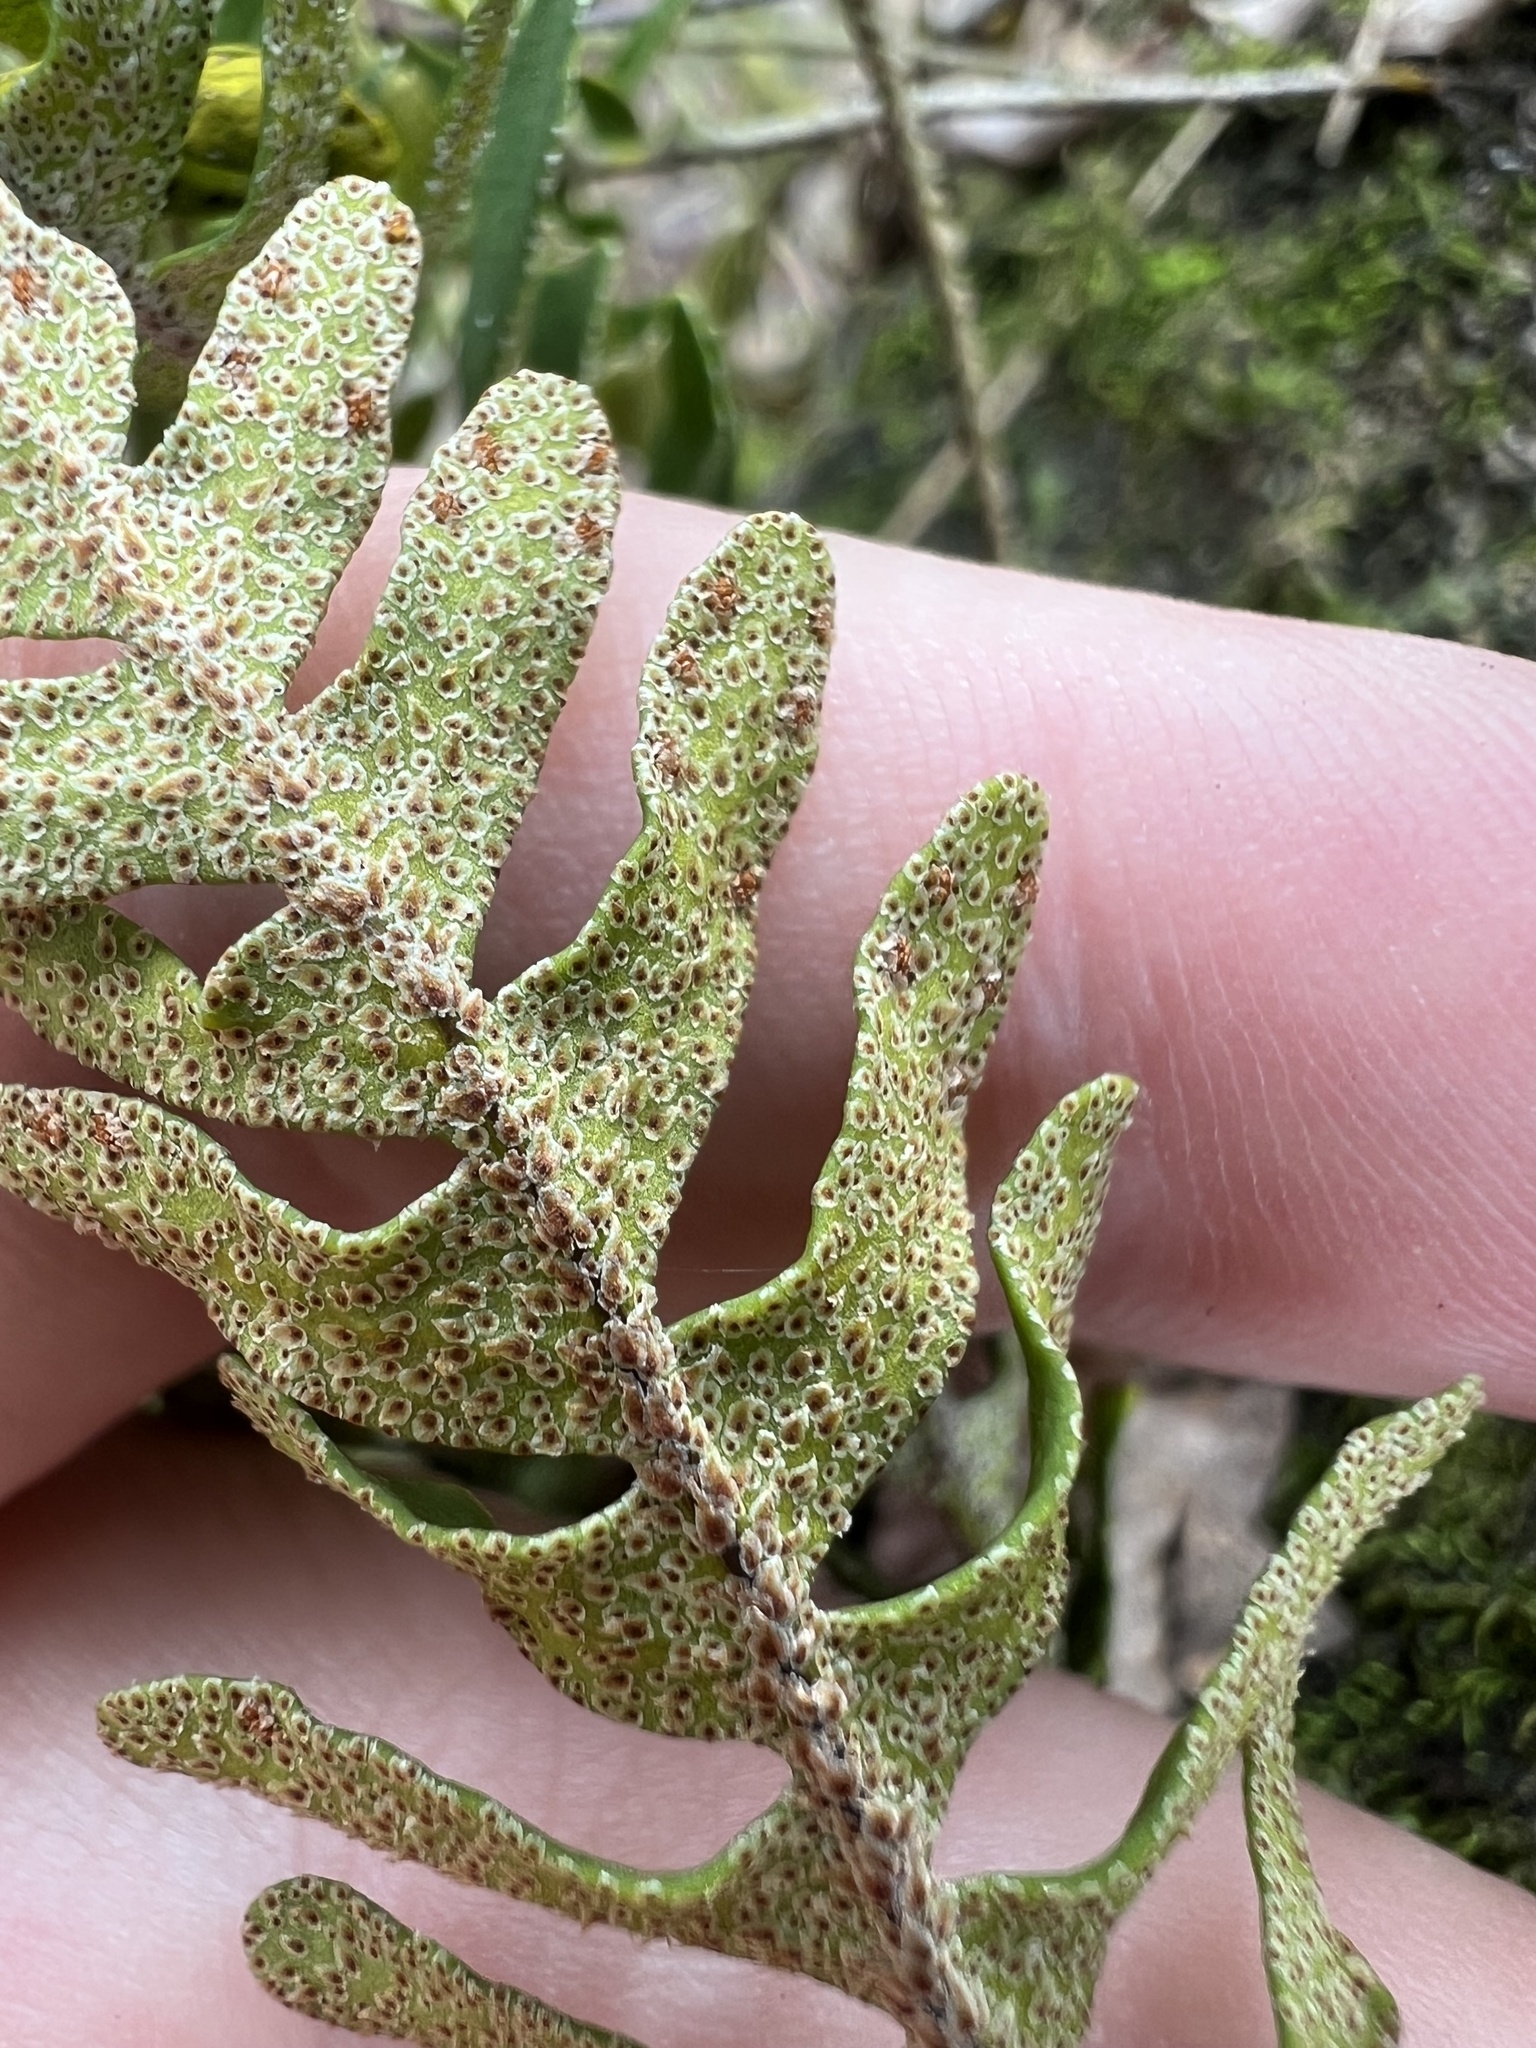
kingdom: Plantae
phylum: Tracheophyta
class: Polypodiopsida
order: Polypodiales
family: Polypodiaceae
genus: Pleopeltis
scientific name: Pleopeltis michauxiana
